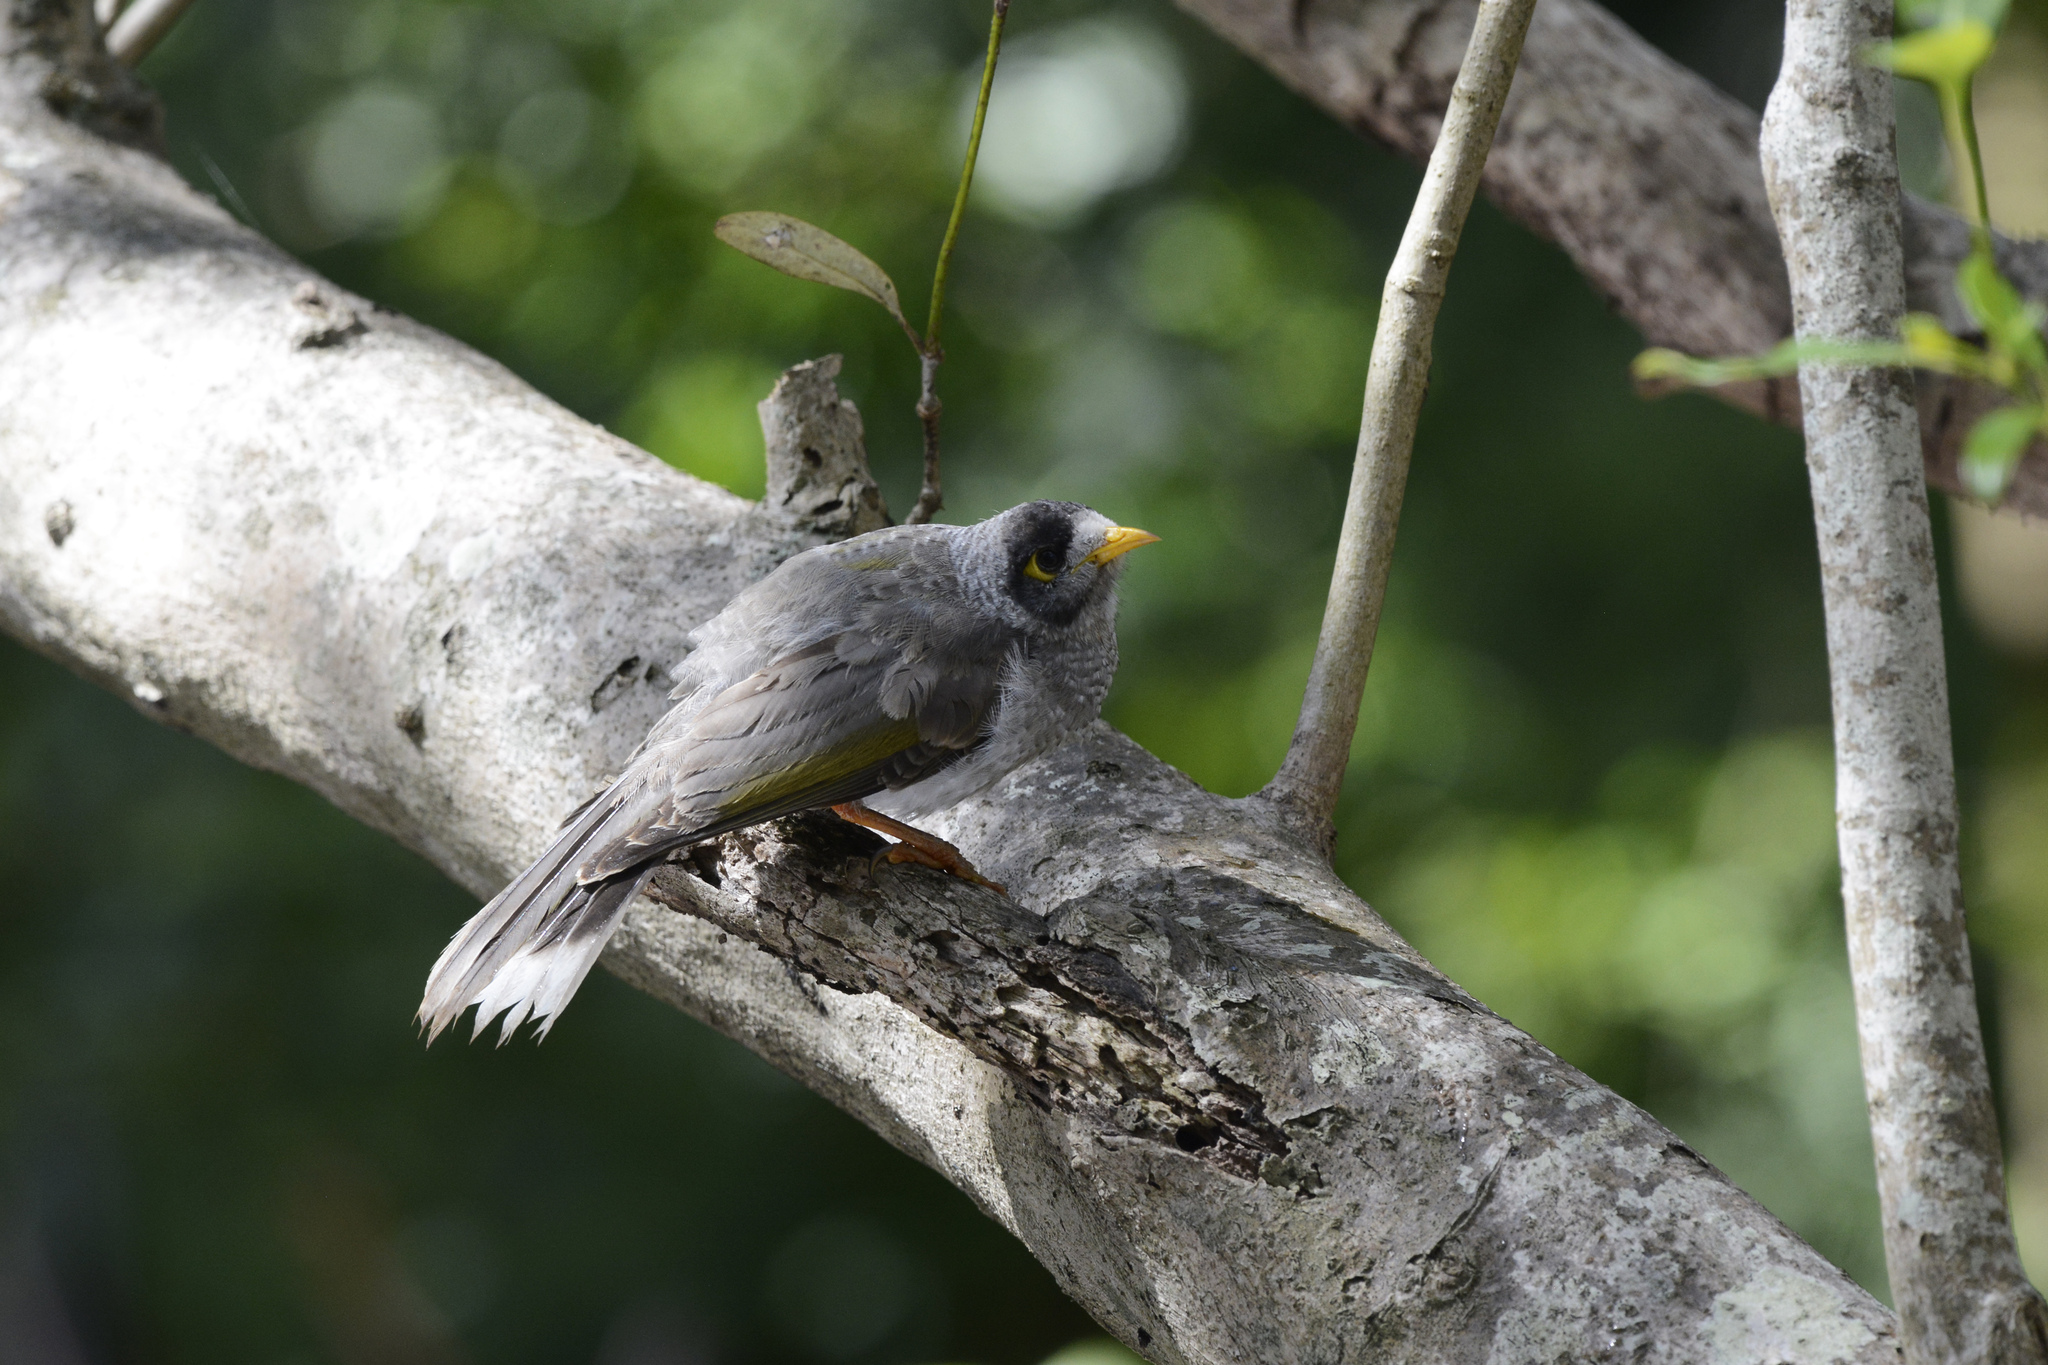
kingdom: Animalia
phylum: Chordata
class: Aves
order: Passeriformes
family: Meliphagidae
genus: Manorina
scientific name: Manorina melanocephala
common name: Noisy miner
